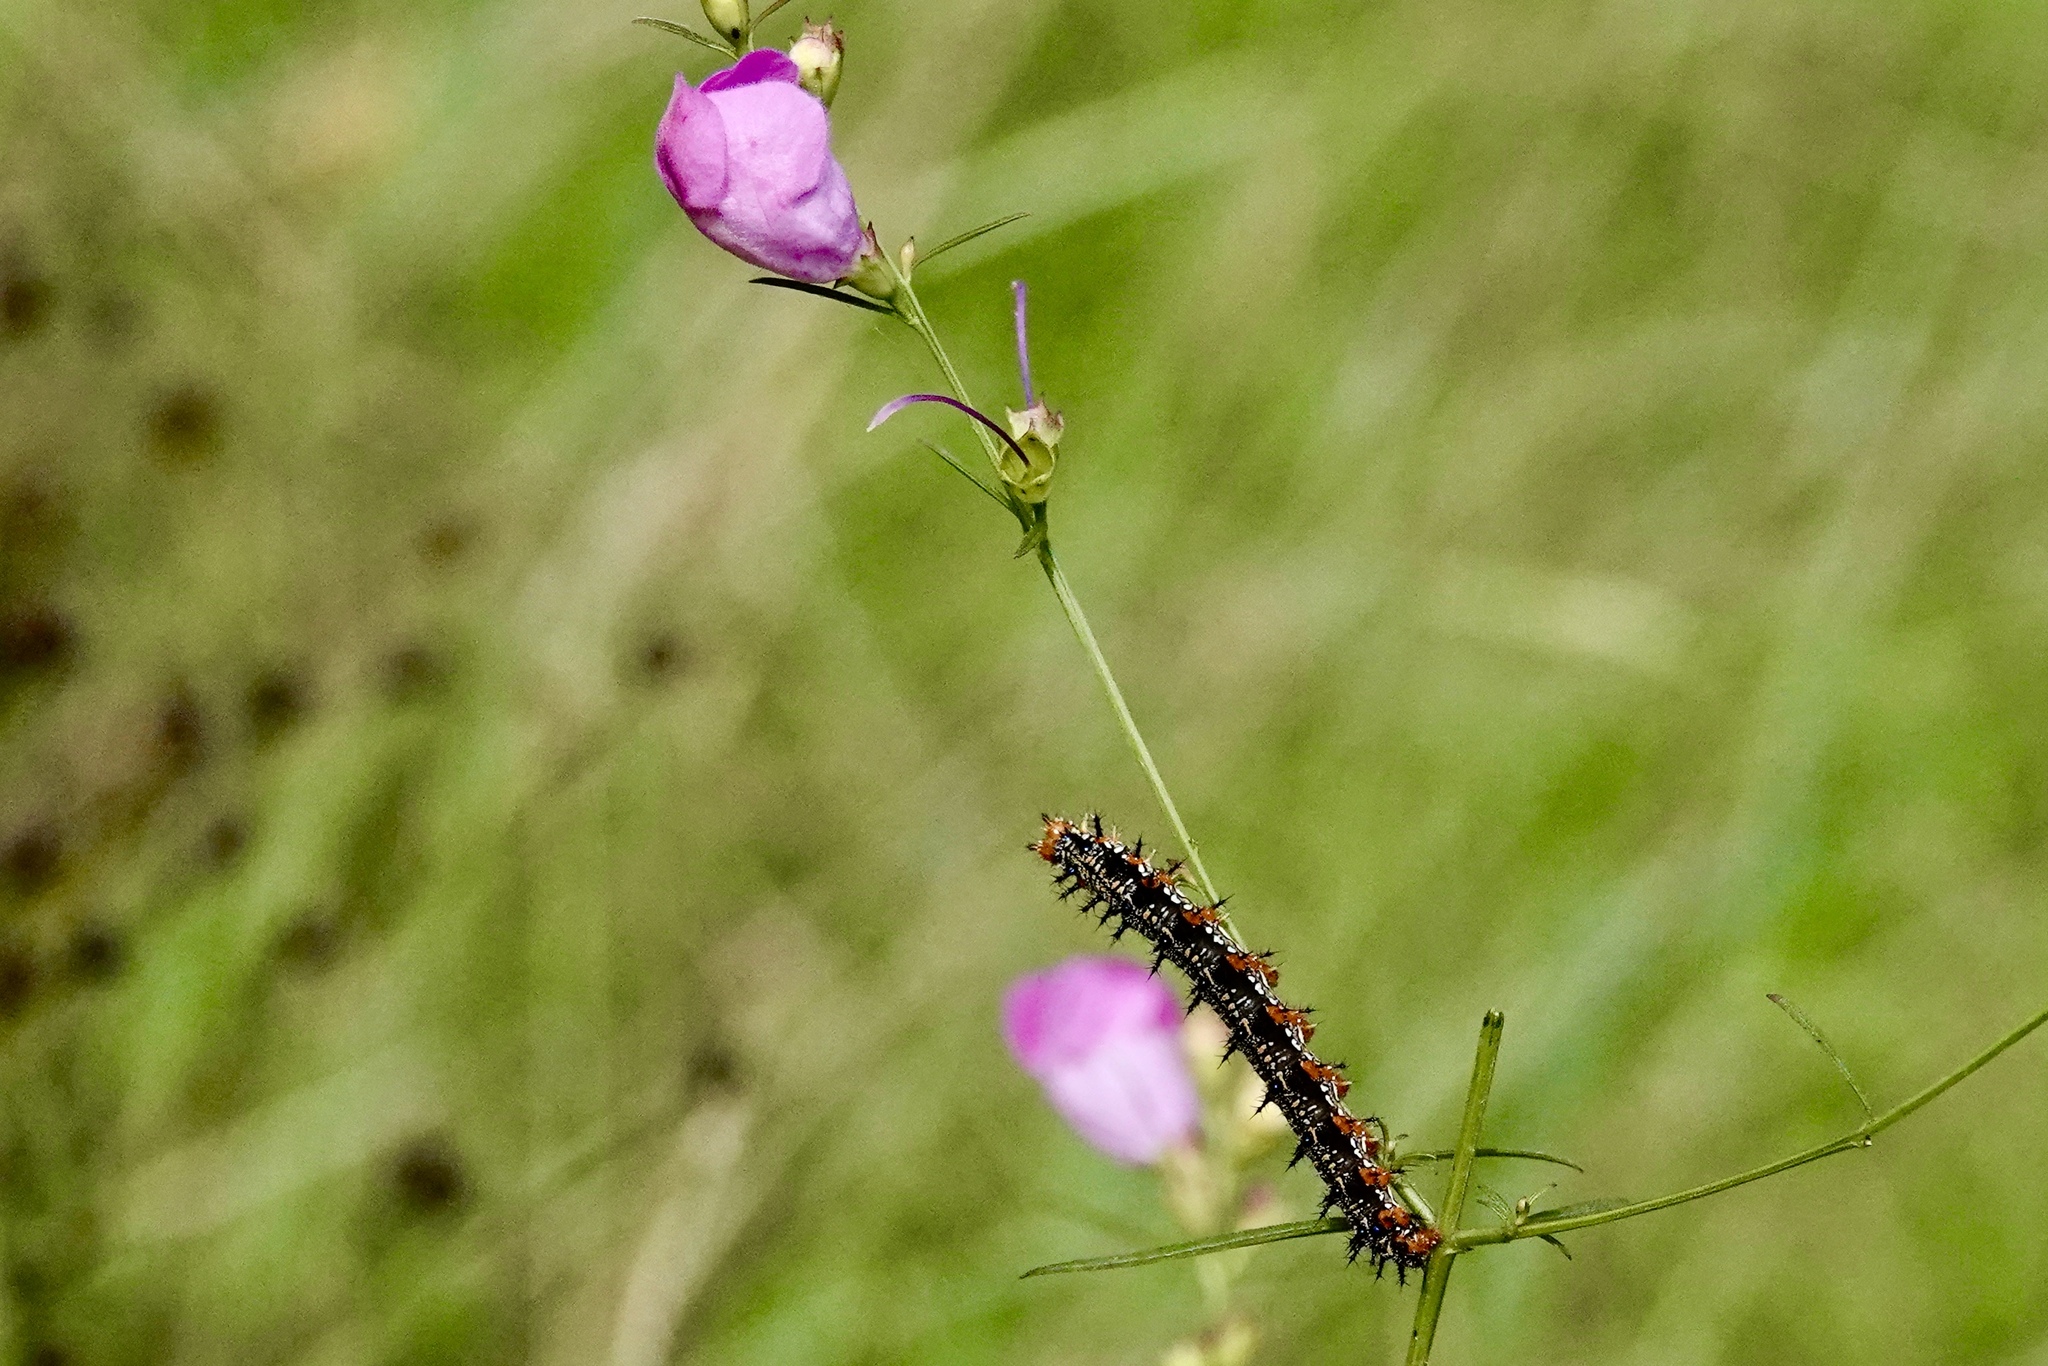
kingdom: Animalia
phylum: Arthropoda
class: Insecta
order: Lepidoptera
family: Nymphalidae
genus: Junonia
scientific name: Junonia coenia
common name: Common buckeye
